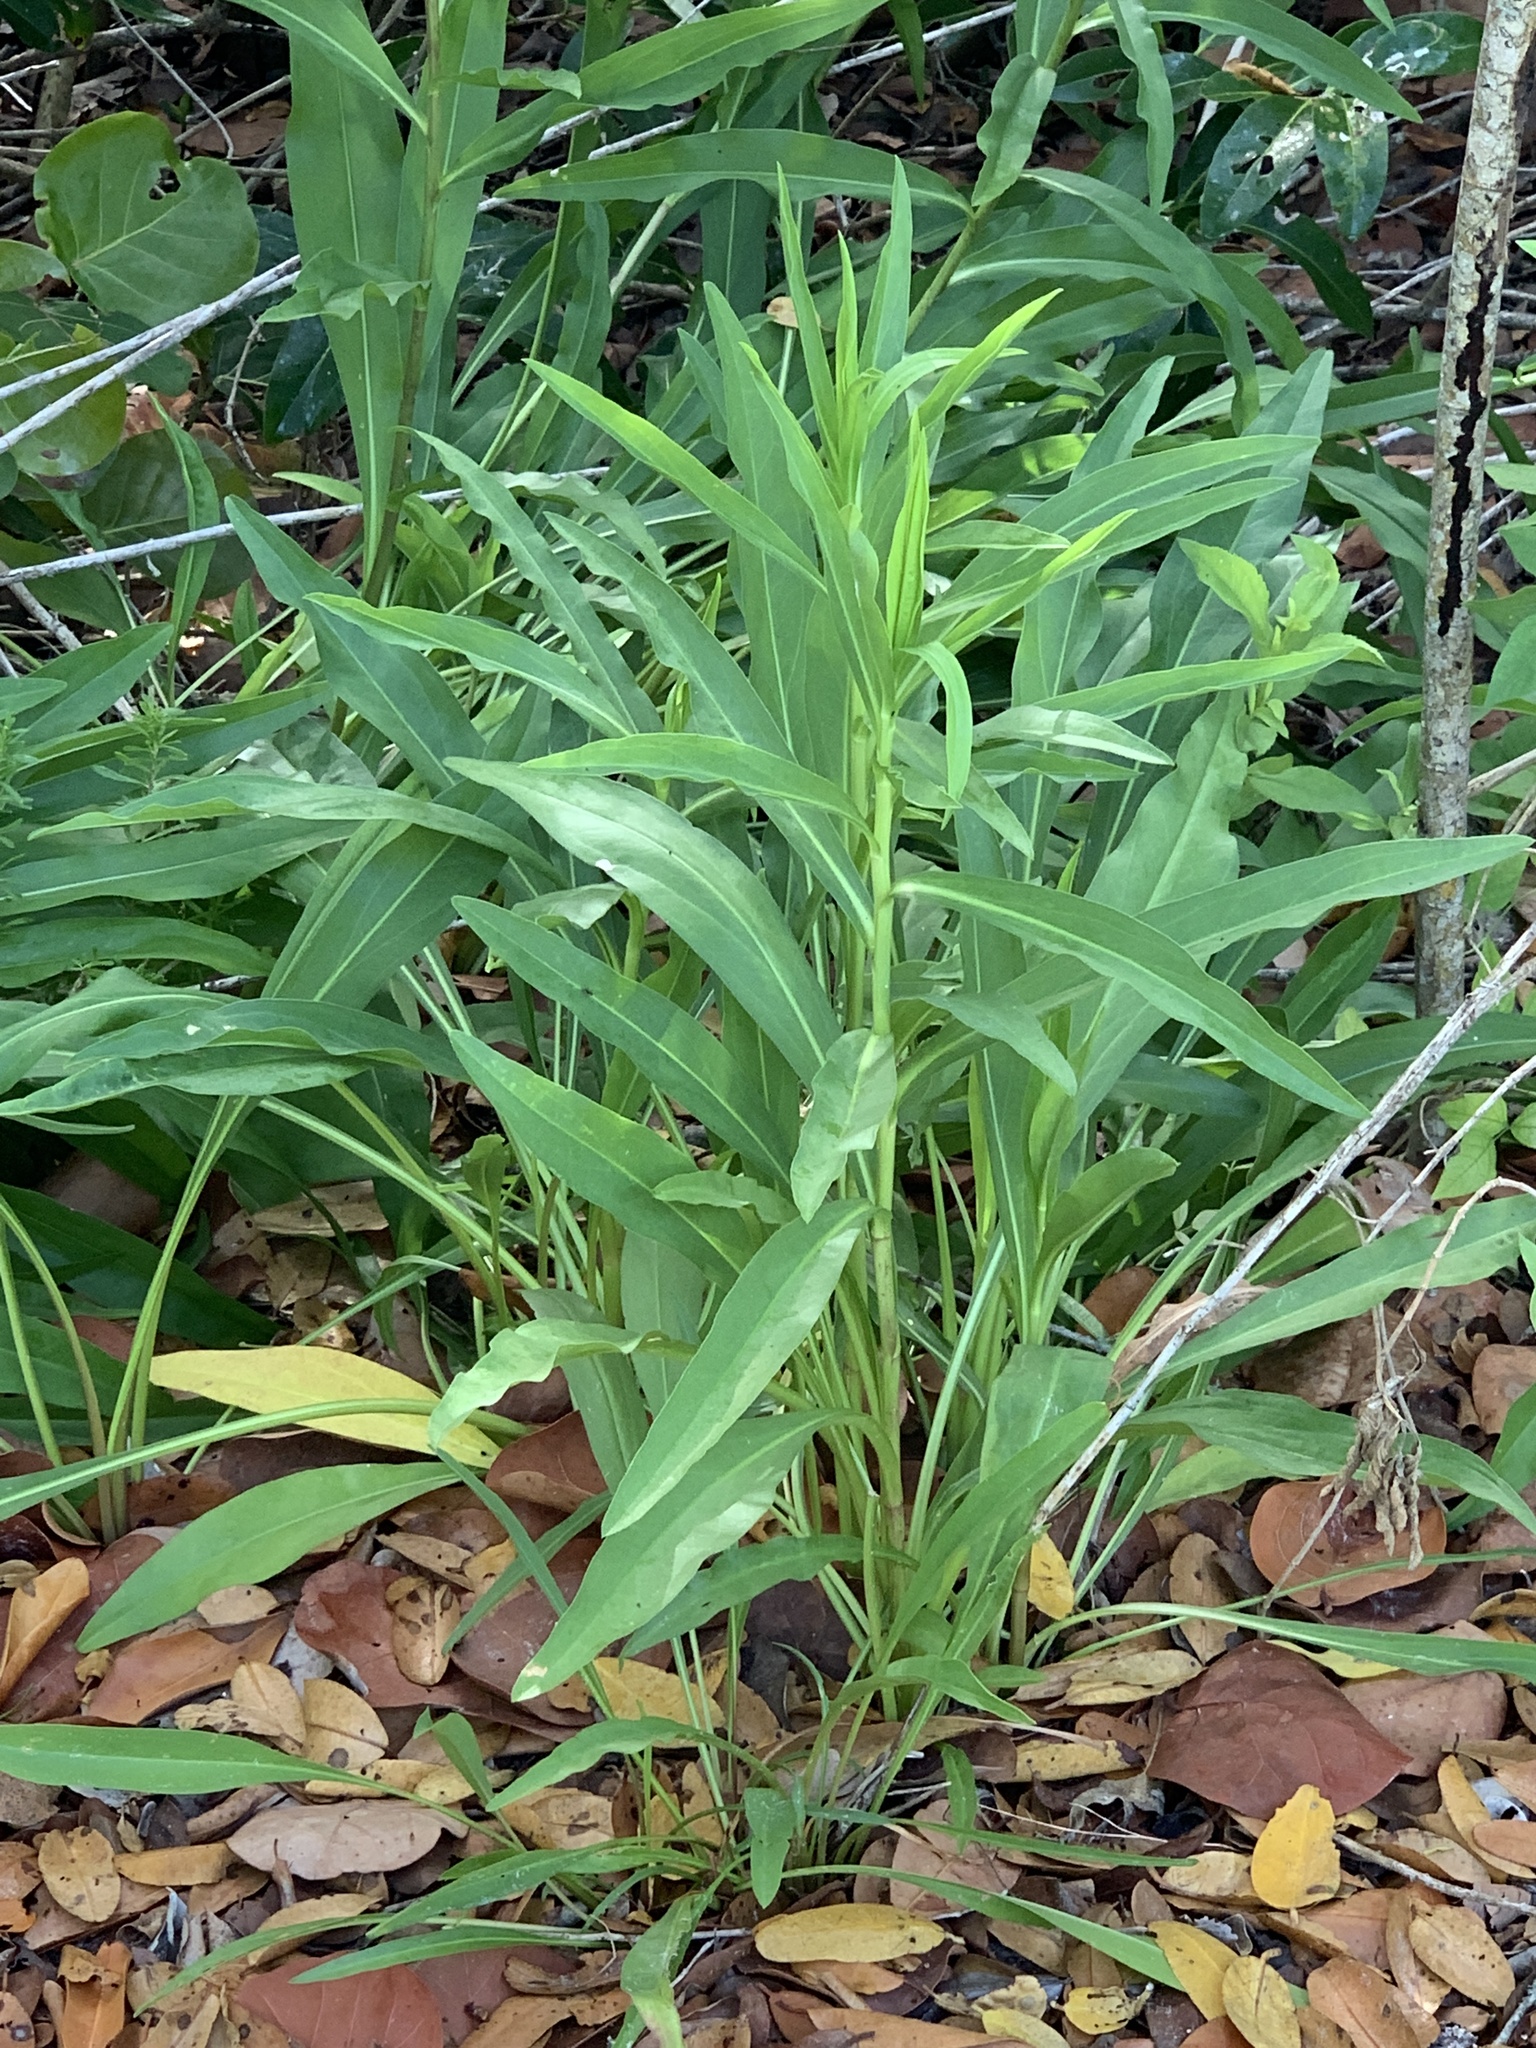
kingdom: Plantae
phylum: Tracheophyta
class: Magnoliopsida
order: Asterales
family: Asteraceae
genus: Solidago
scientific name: Solidago mexicana
